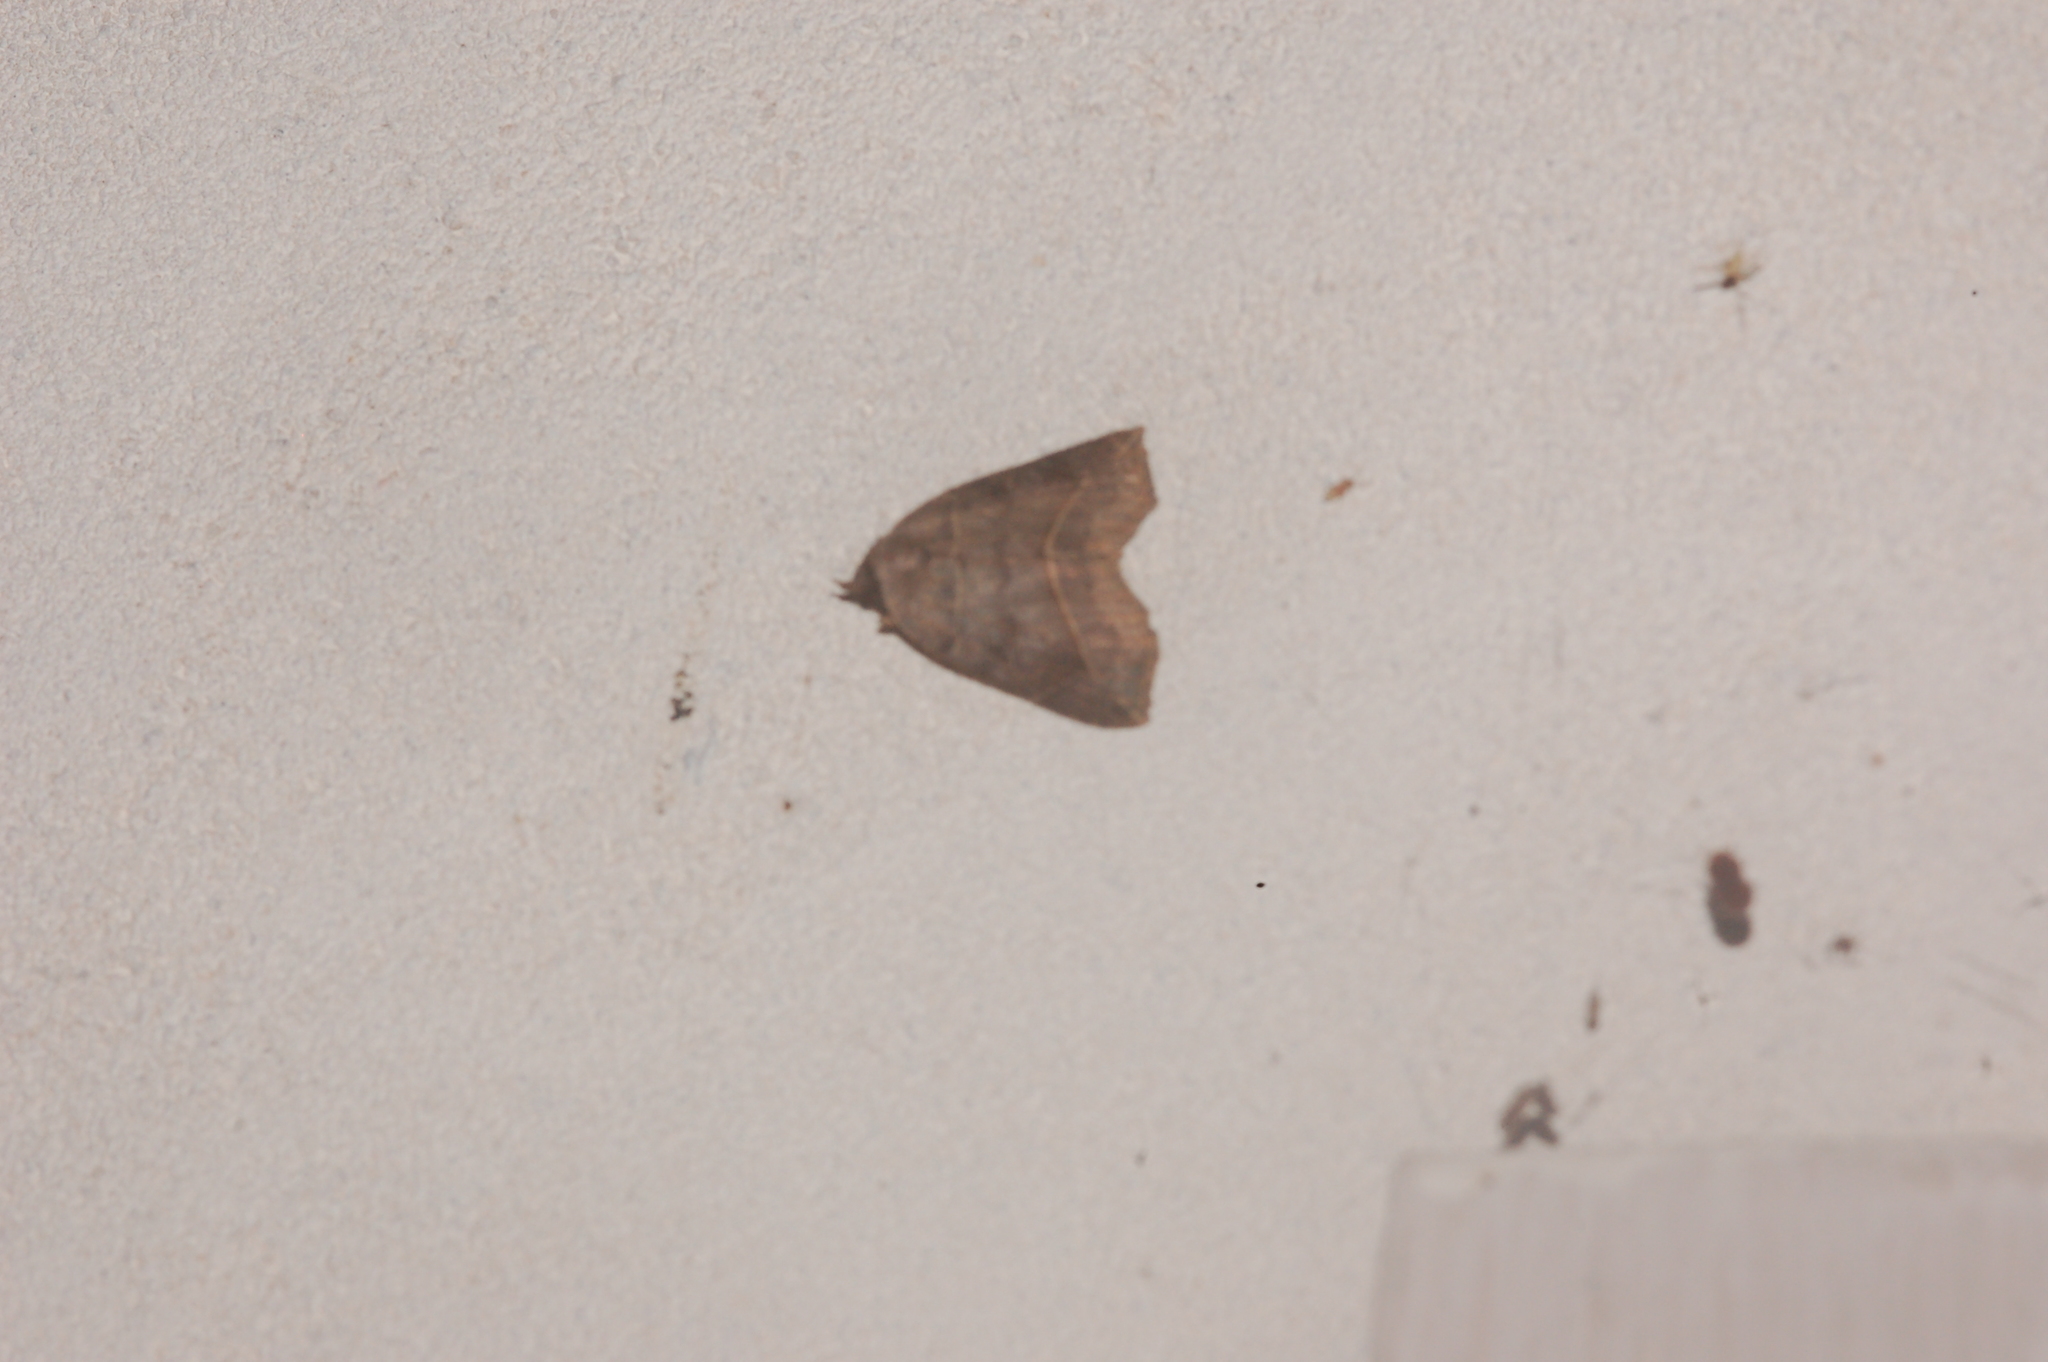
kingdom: Animalia
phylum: Arthropoda
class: Insecta
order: Lepidoptera
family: Erebidae
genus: Isogona
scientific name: Isogona tenuis
